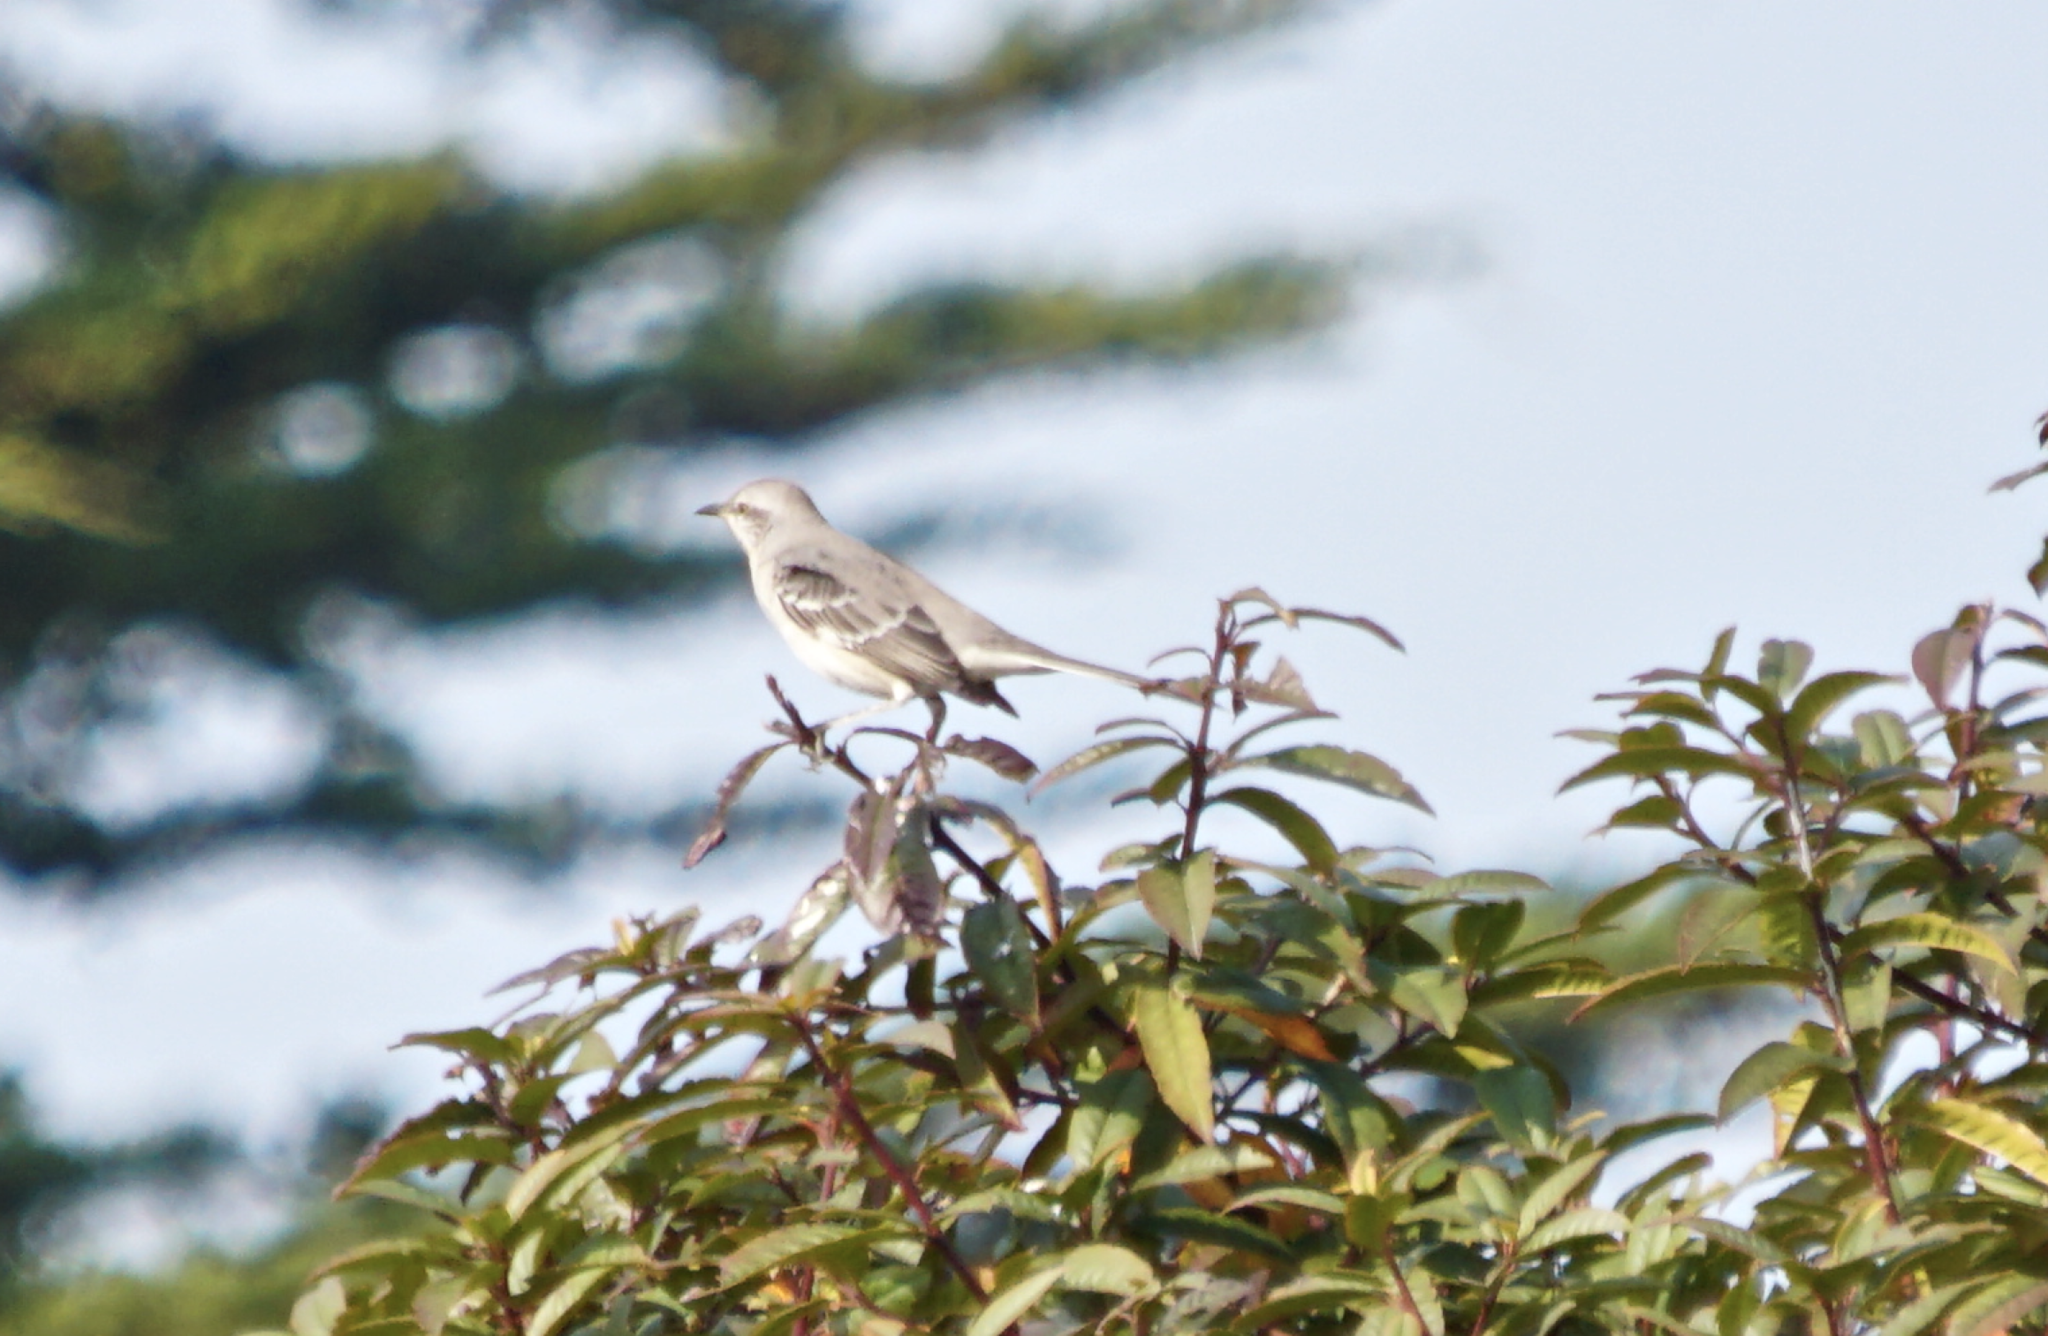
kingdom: Animalia
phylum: Chordata
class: Aves
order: Passeriformes
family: Mimidae
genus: Mimus
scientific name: Mimus polyglottos
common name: Northern mockingbird
